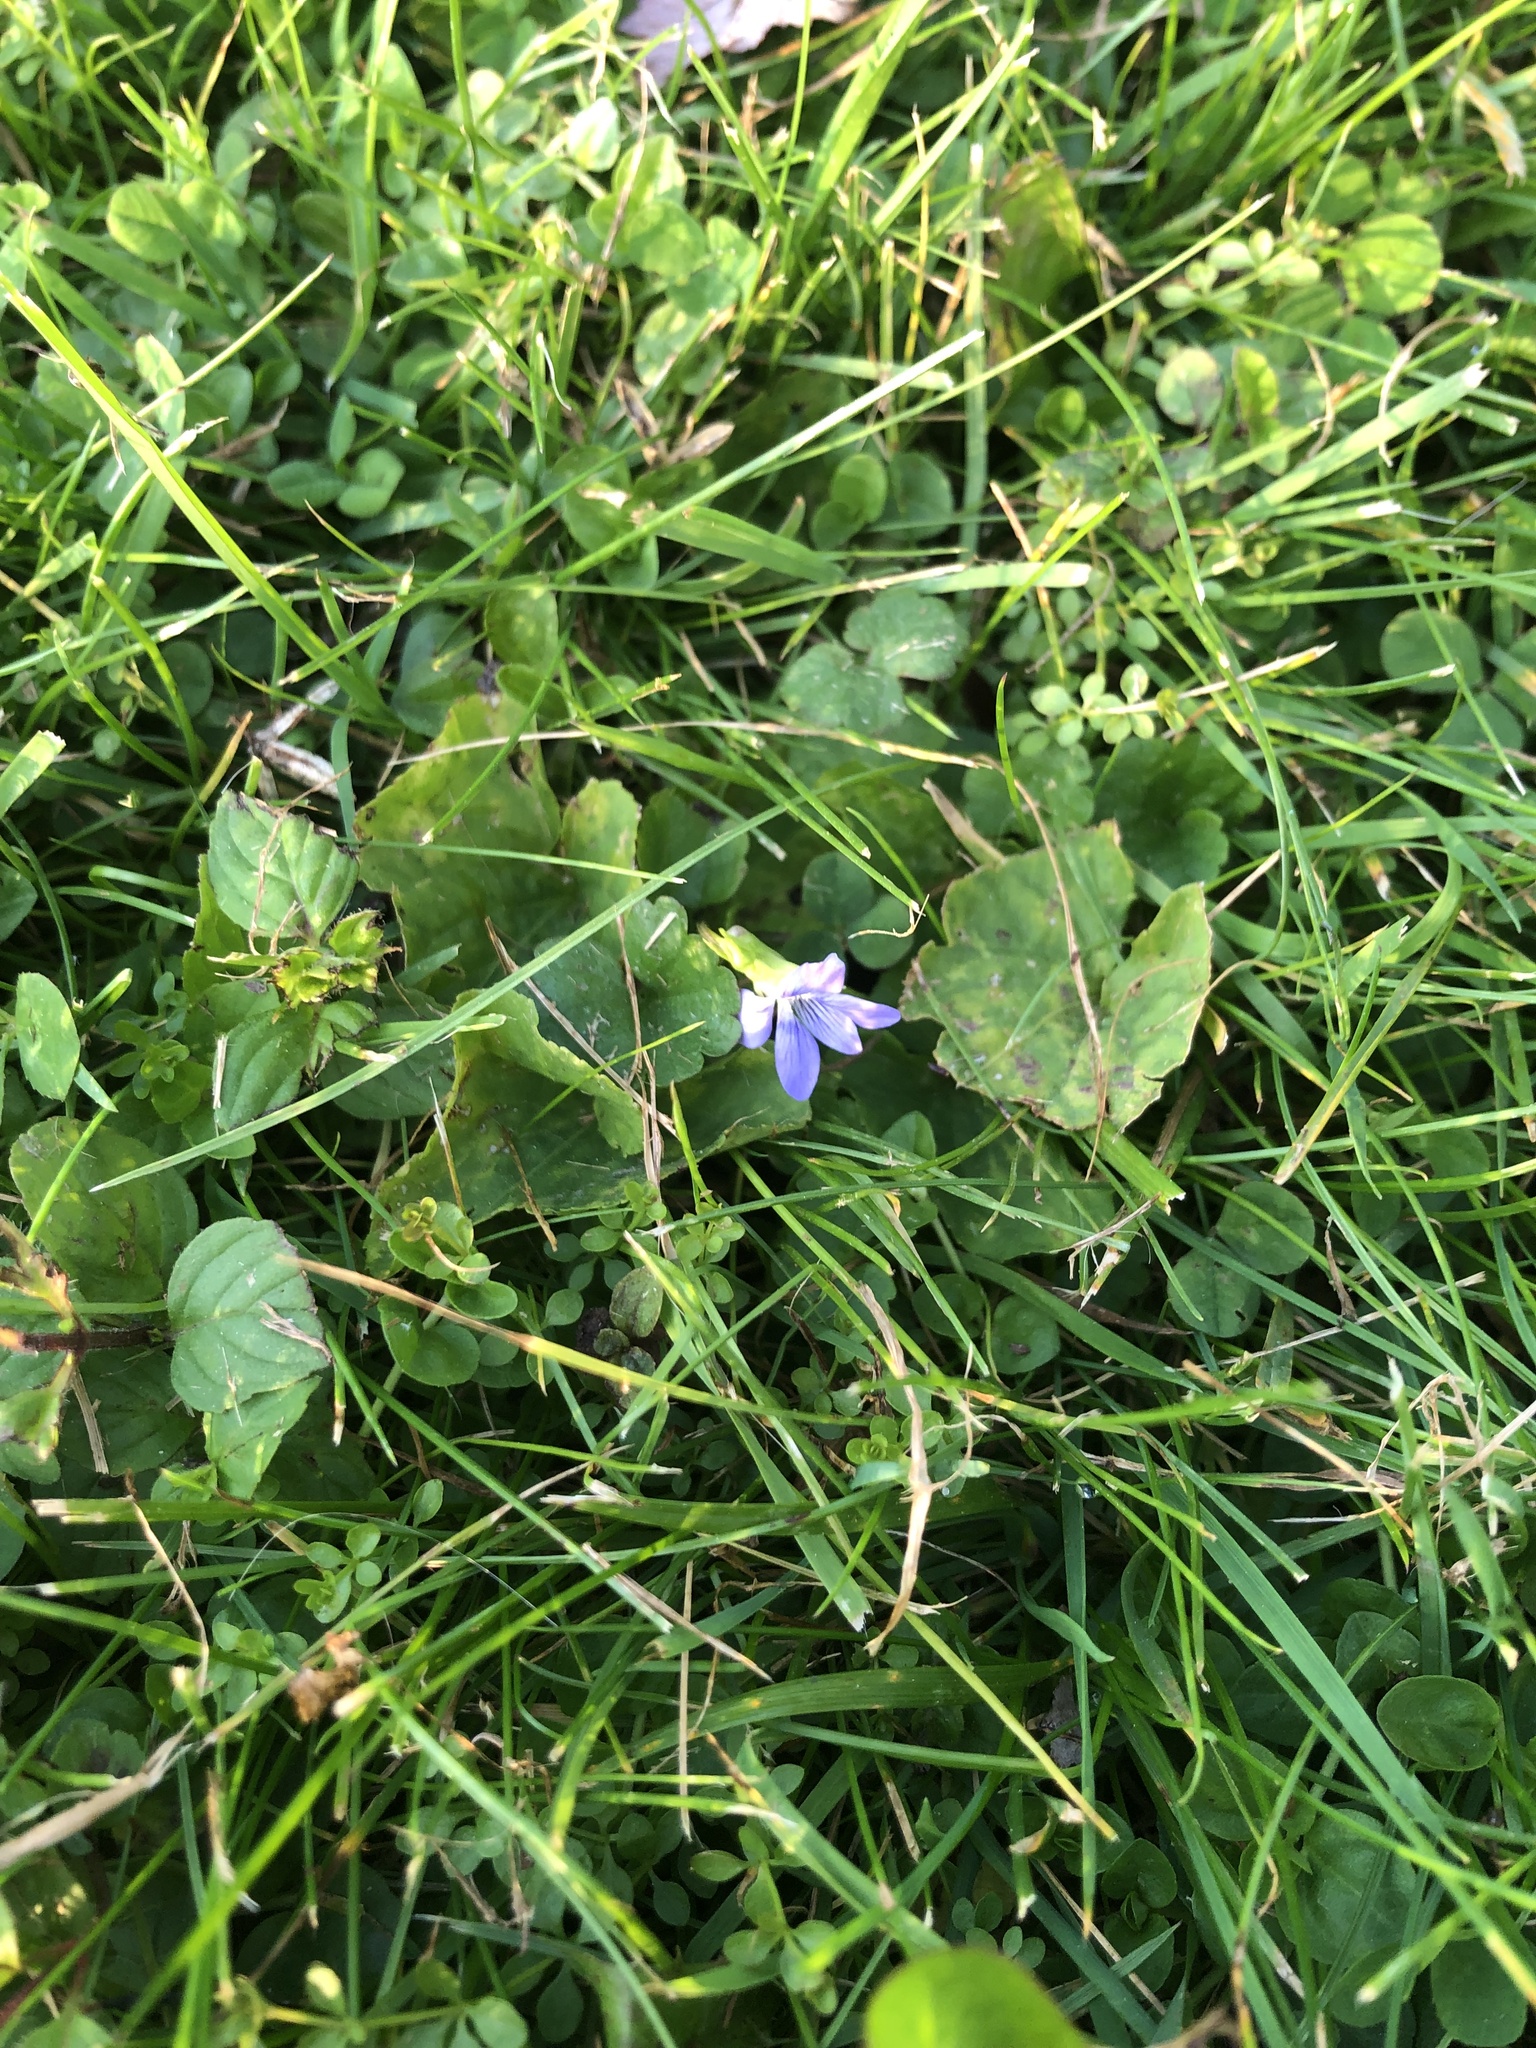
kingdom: Plantae
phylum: Tracheophyta
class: Magnoliopsida
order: Malpighiales
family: Violaceae
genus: Viola
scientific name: Viola sororia
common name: Dooryard violet
